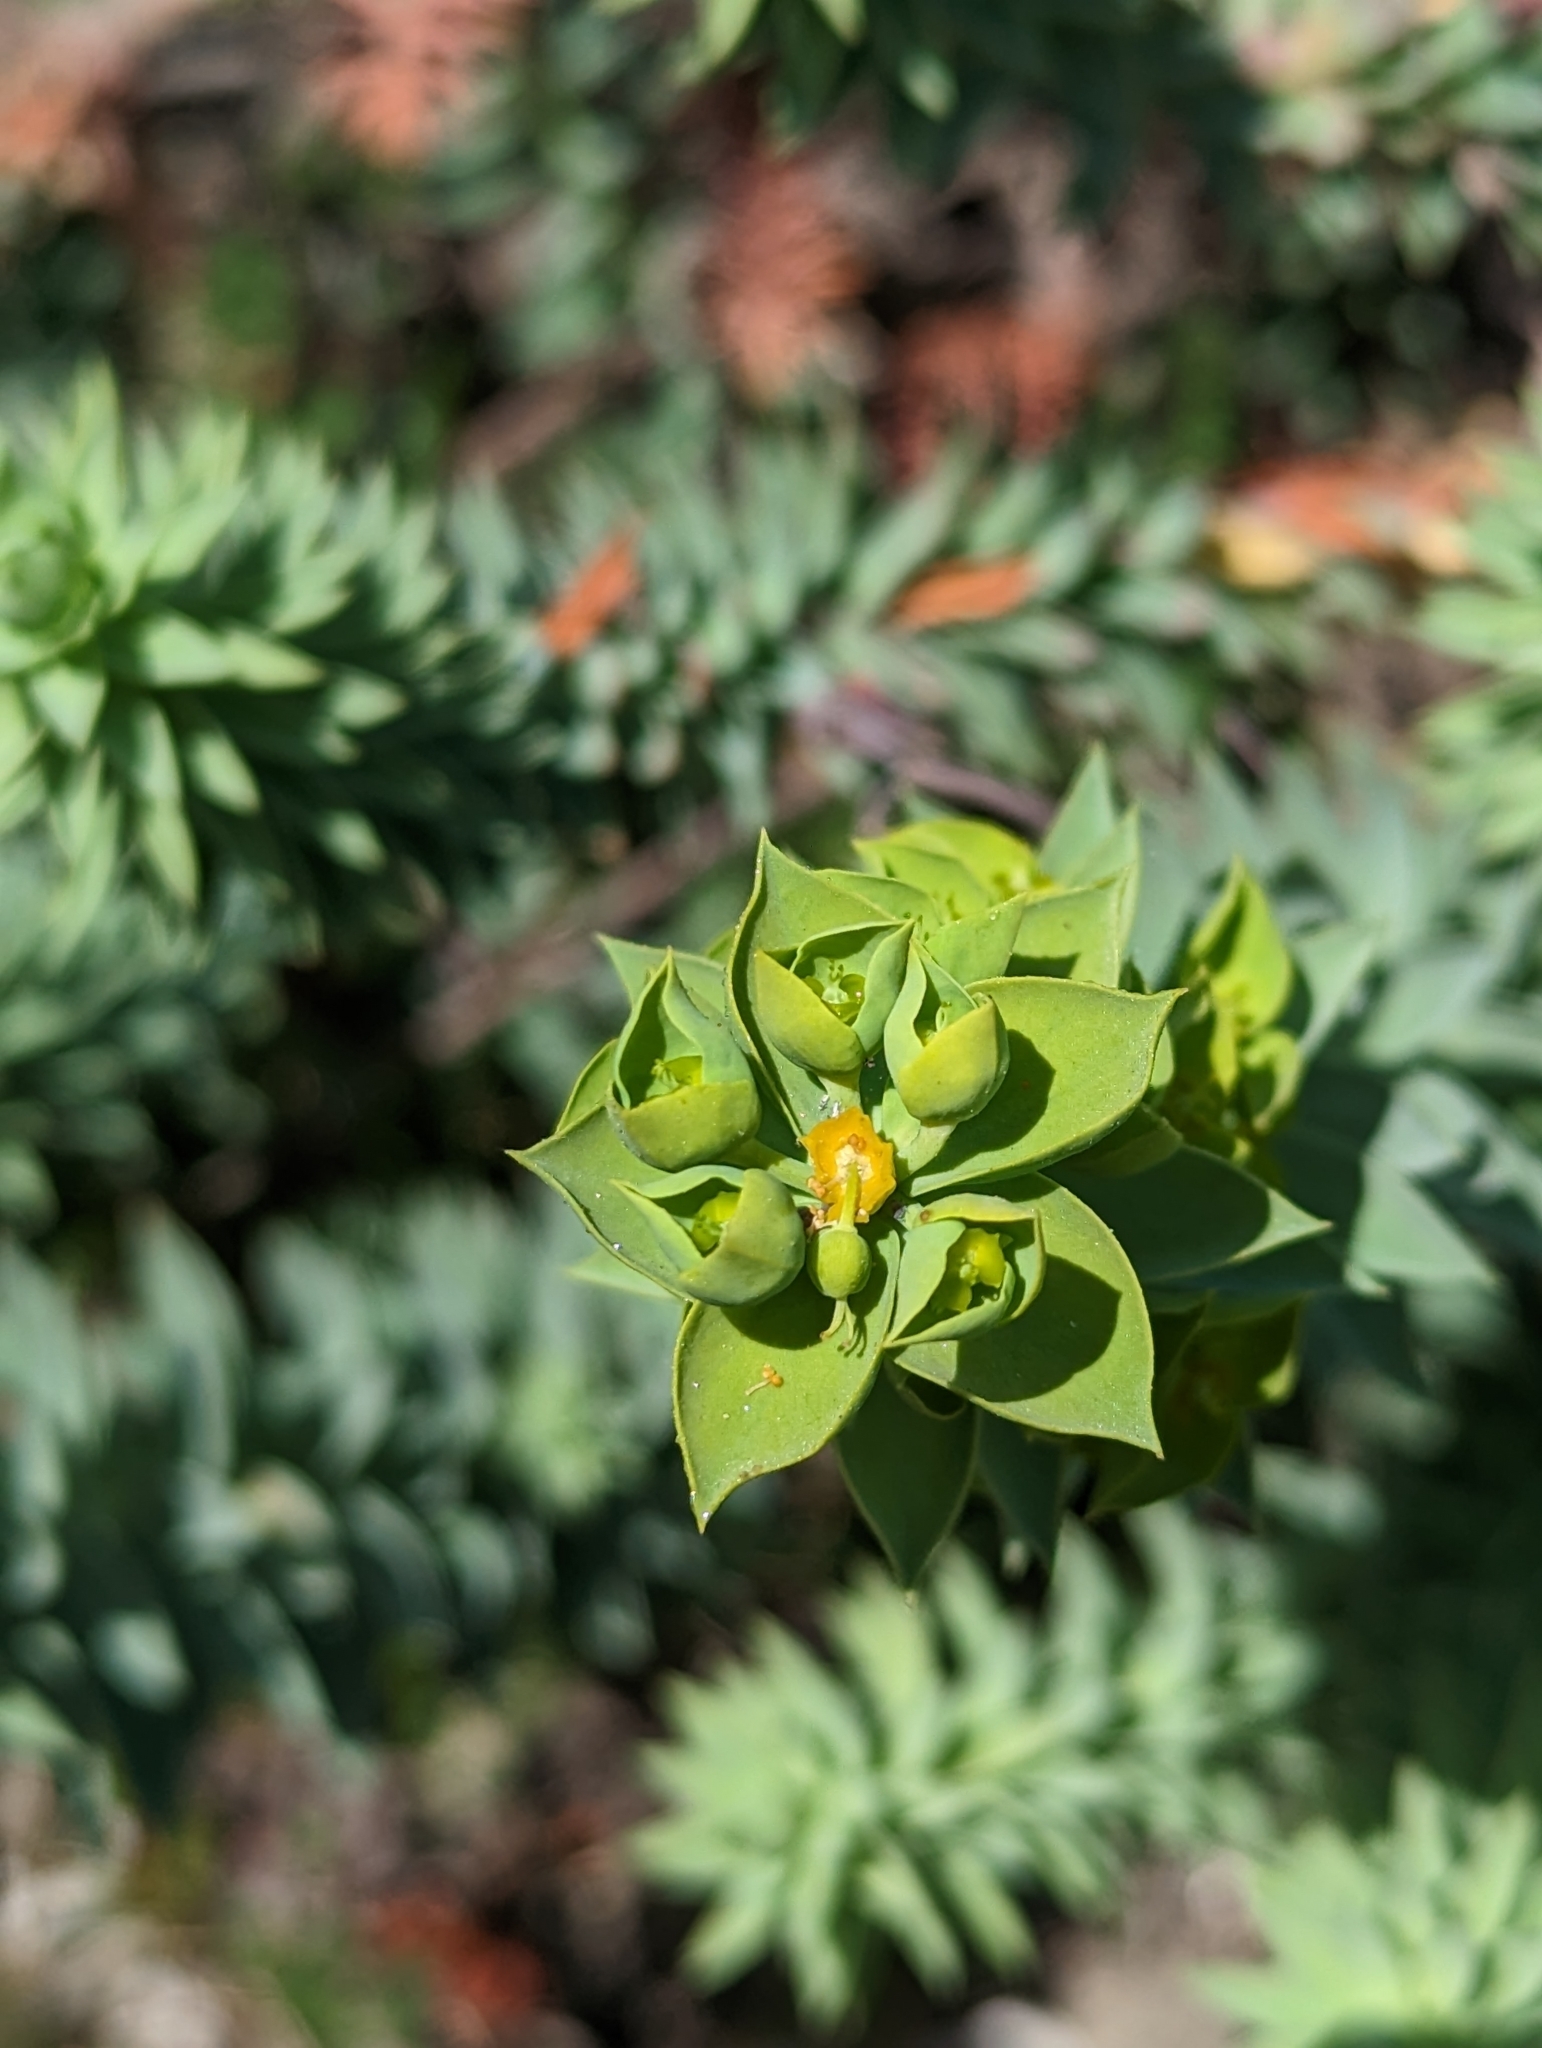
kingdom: Plantae
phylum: Tracheophyta
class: Magnoliopsida
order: Malpighiales
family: Euphorbiaceae
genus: Euphorbia
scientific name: Euphorbia pithyusa
